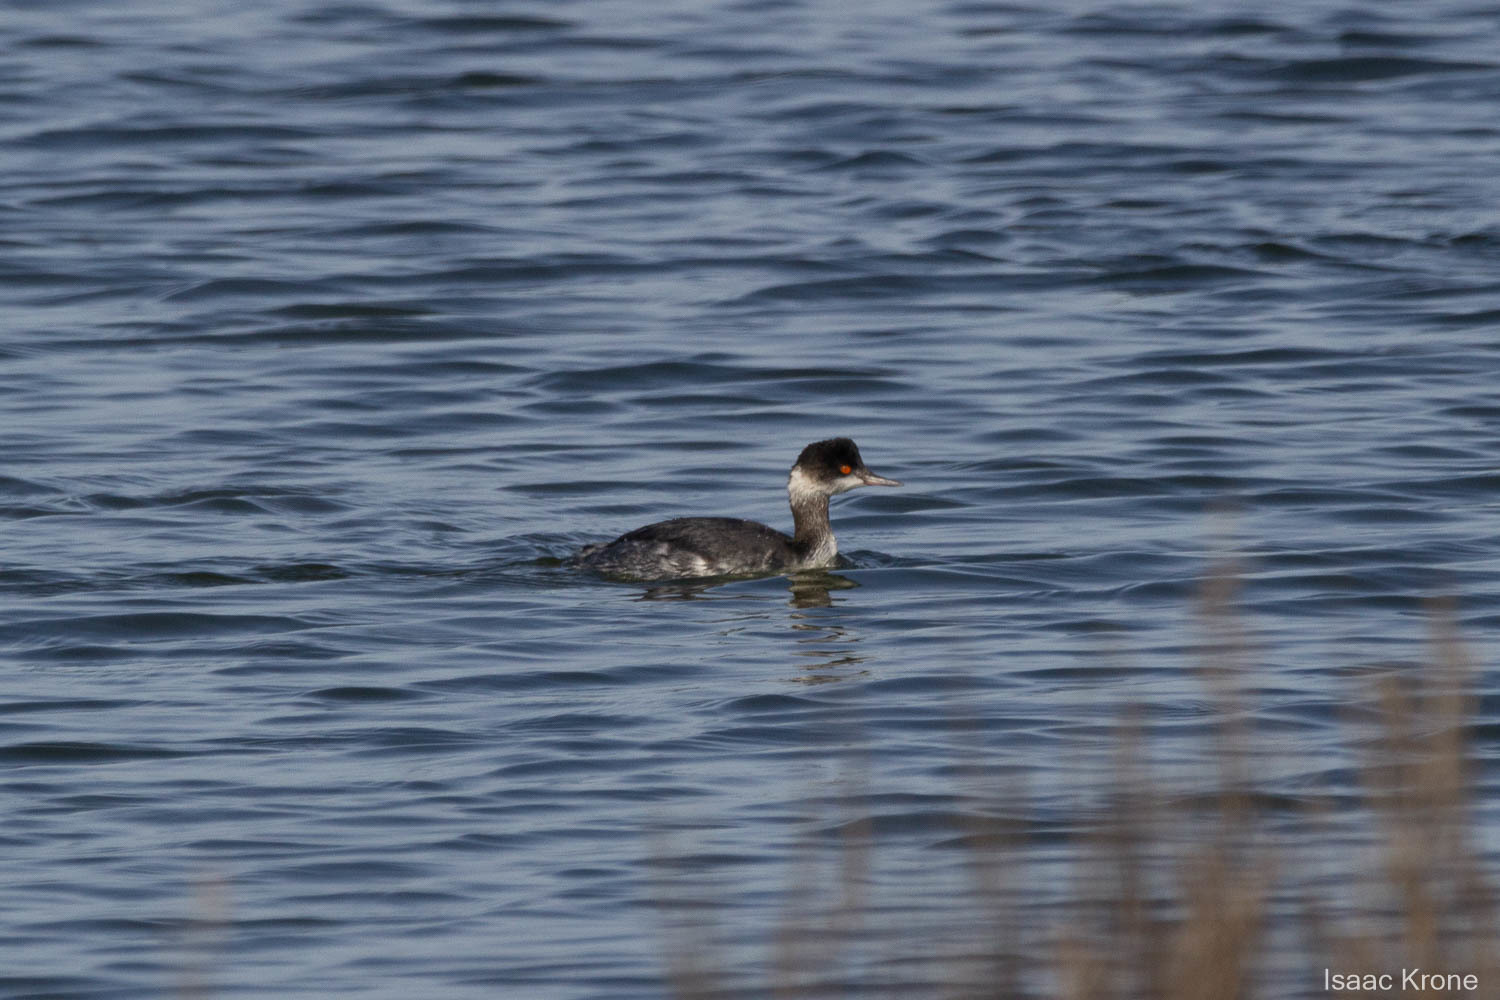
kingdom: Animalia
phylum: Chordata
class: Aves
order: Podicipediformes
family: Podicipedidae
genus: Podiceps
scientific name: Podiceps nigricollis
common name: Black-necked grebe
